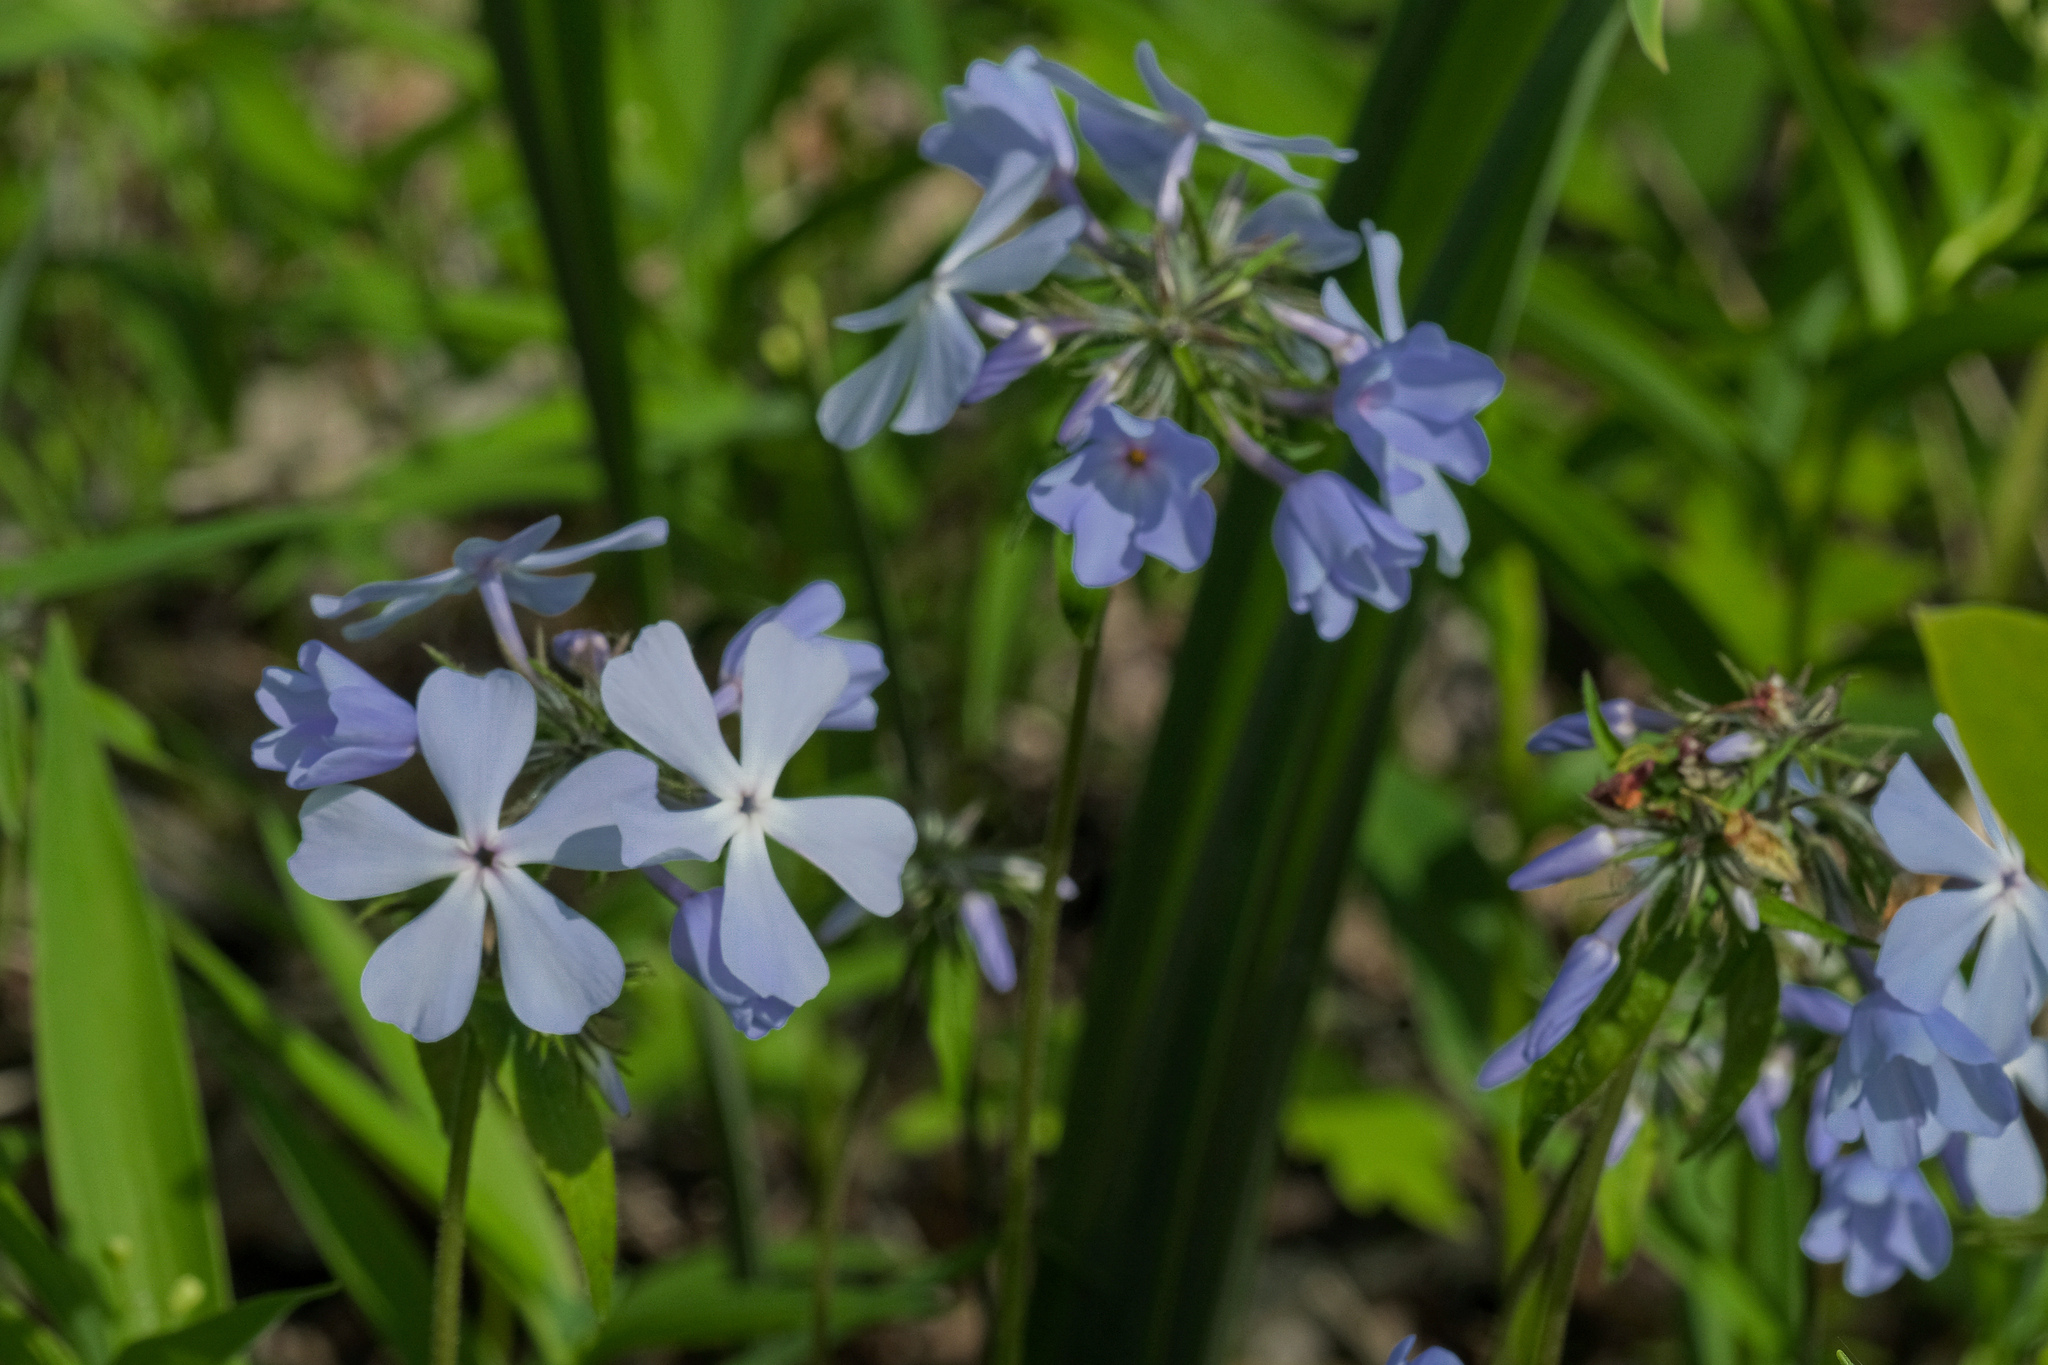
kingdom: Plantae
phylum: Tracheophyta
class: Magnoliopsida
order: Ericales
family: Polemoniaceae
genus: Phlox
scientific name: Phlox divaricata
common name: Blue phlox
